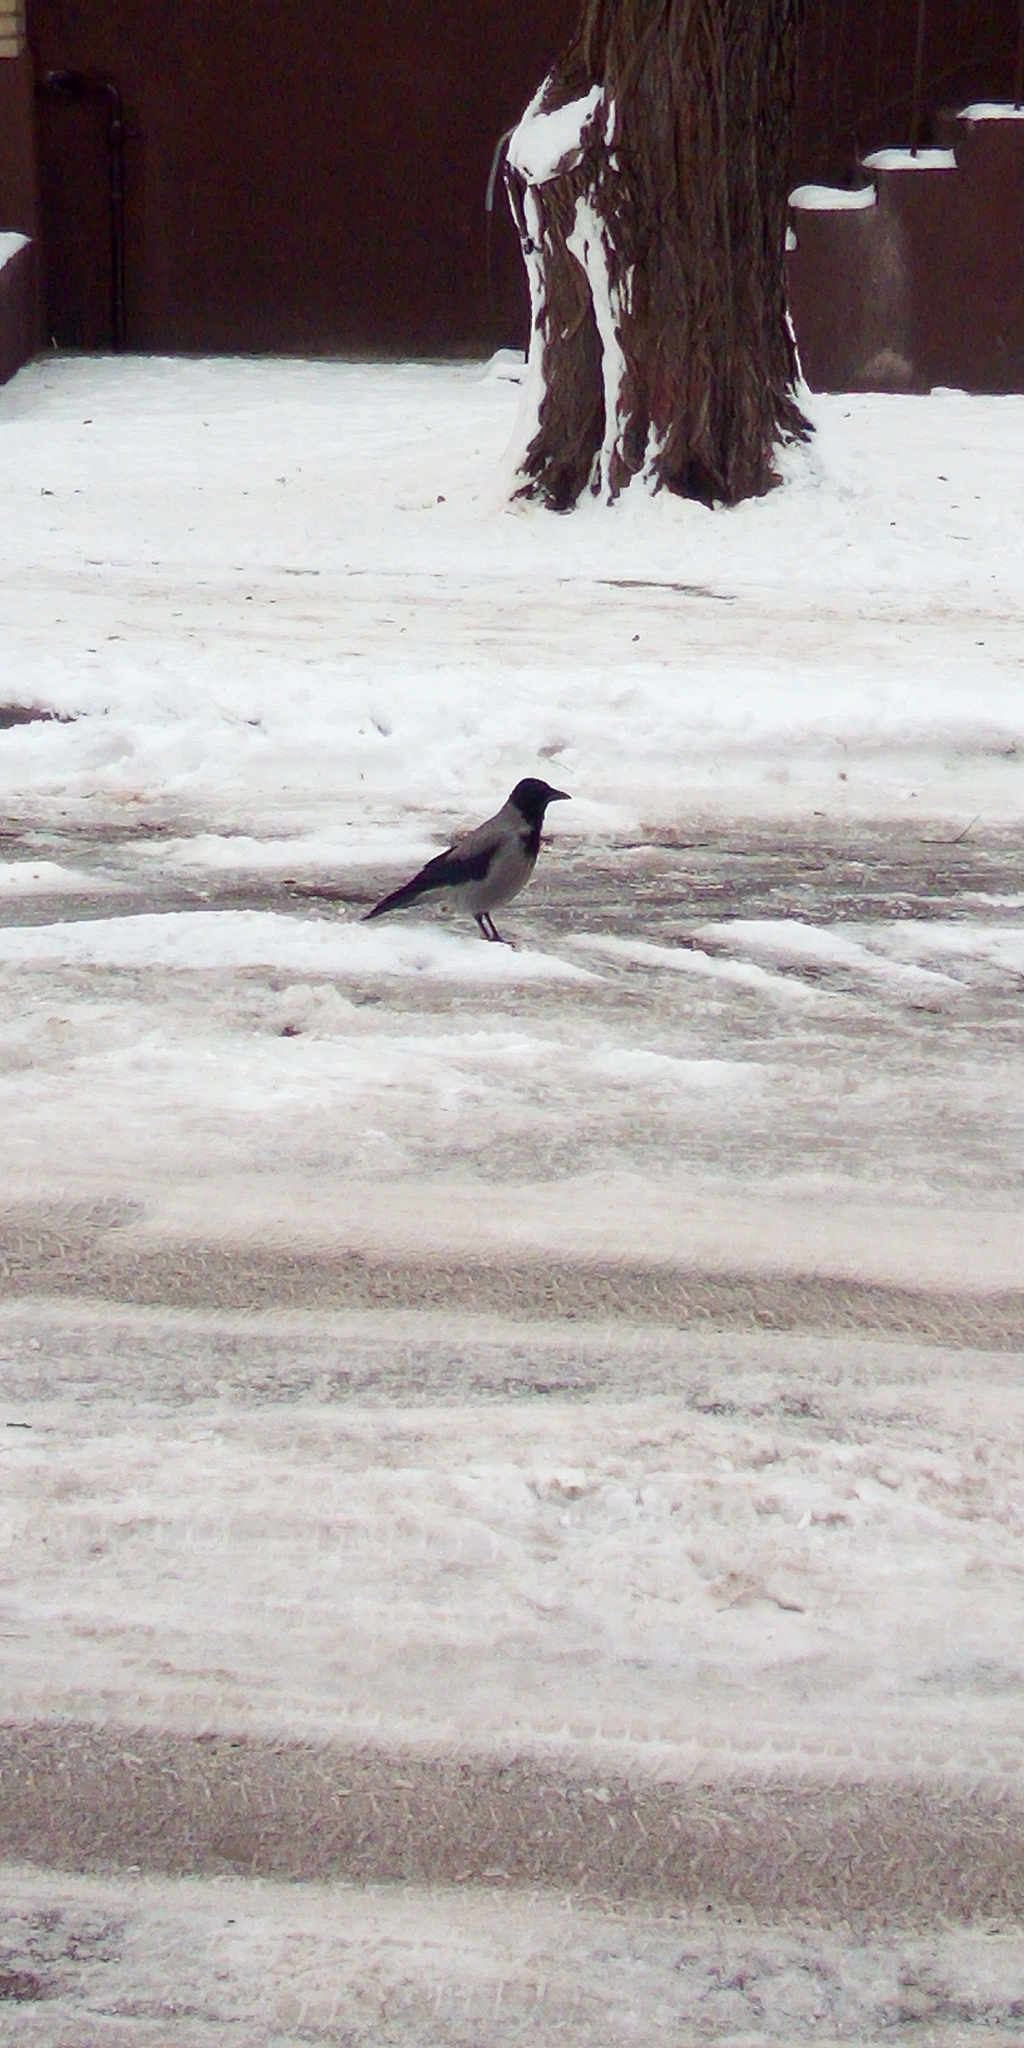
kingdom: Animalia
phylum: Chordata
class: Aves
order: Passeriformes
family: Corvidae
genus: Corvus
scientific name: Corvus cornix
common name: Hooded crow
